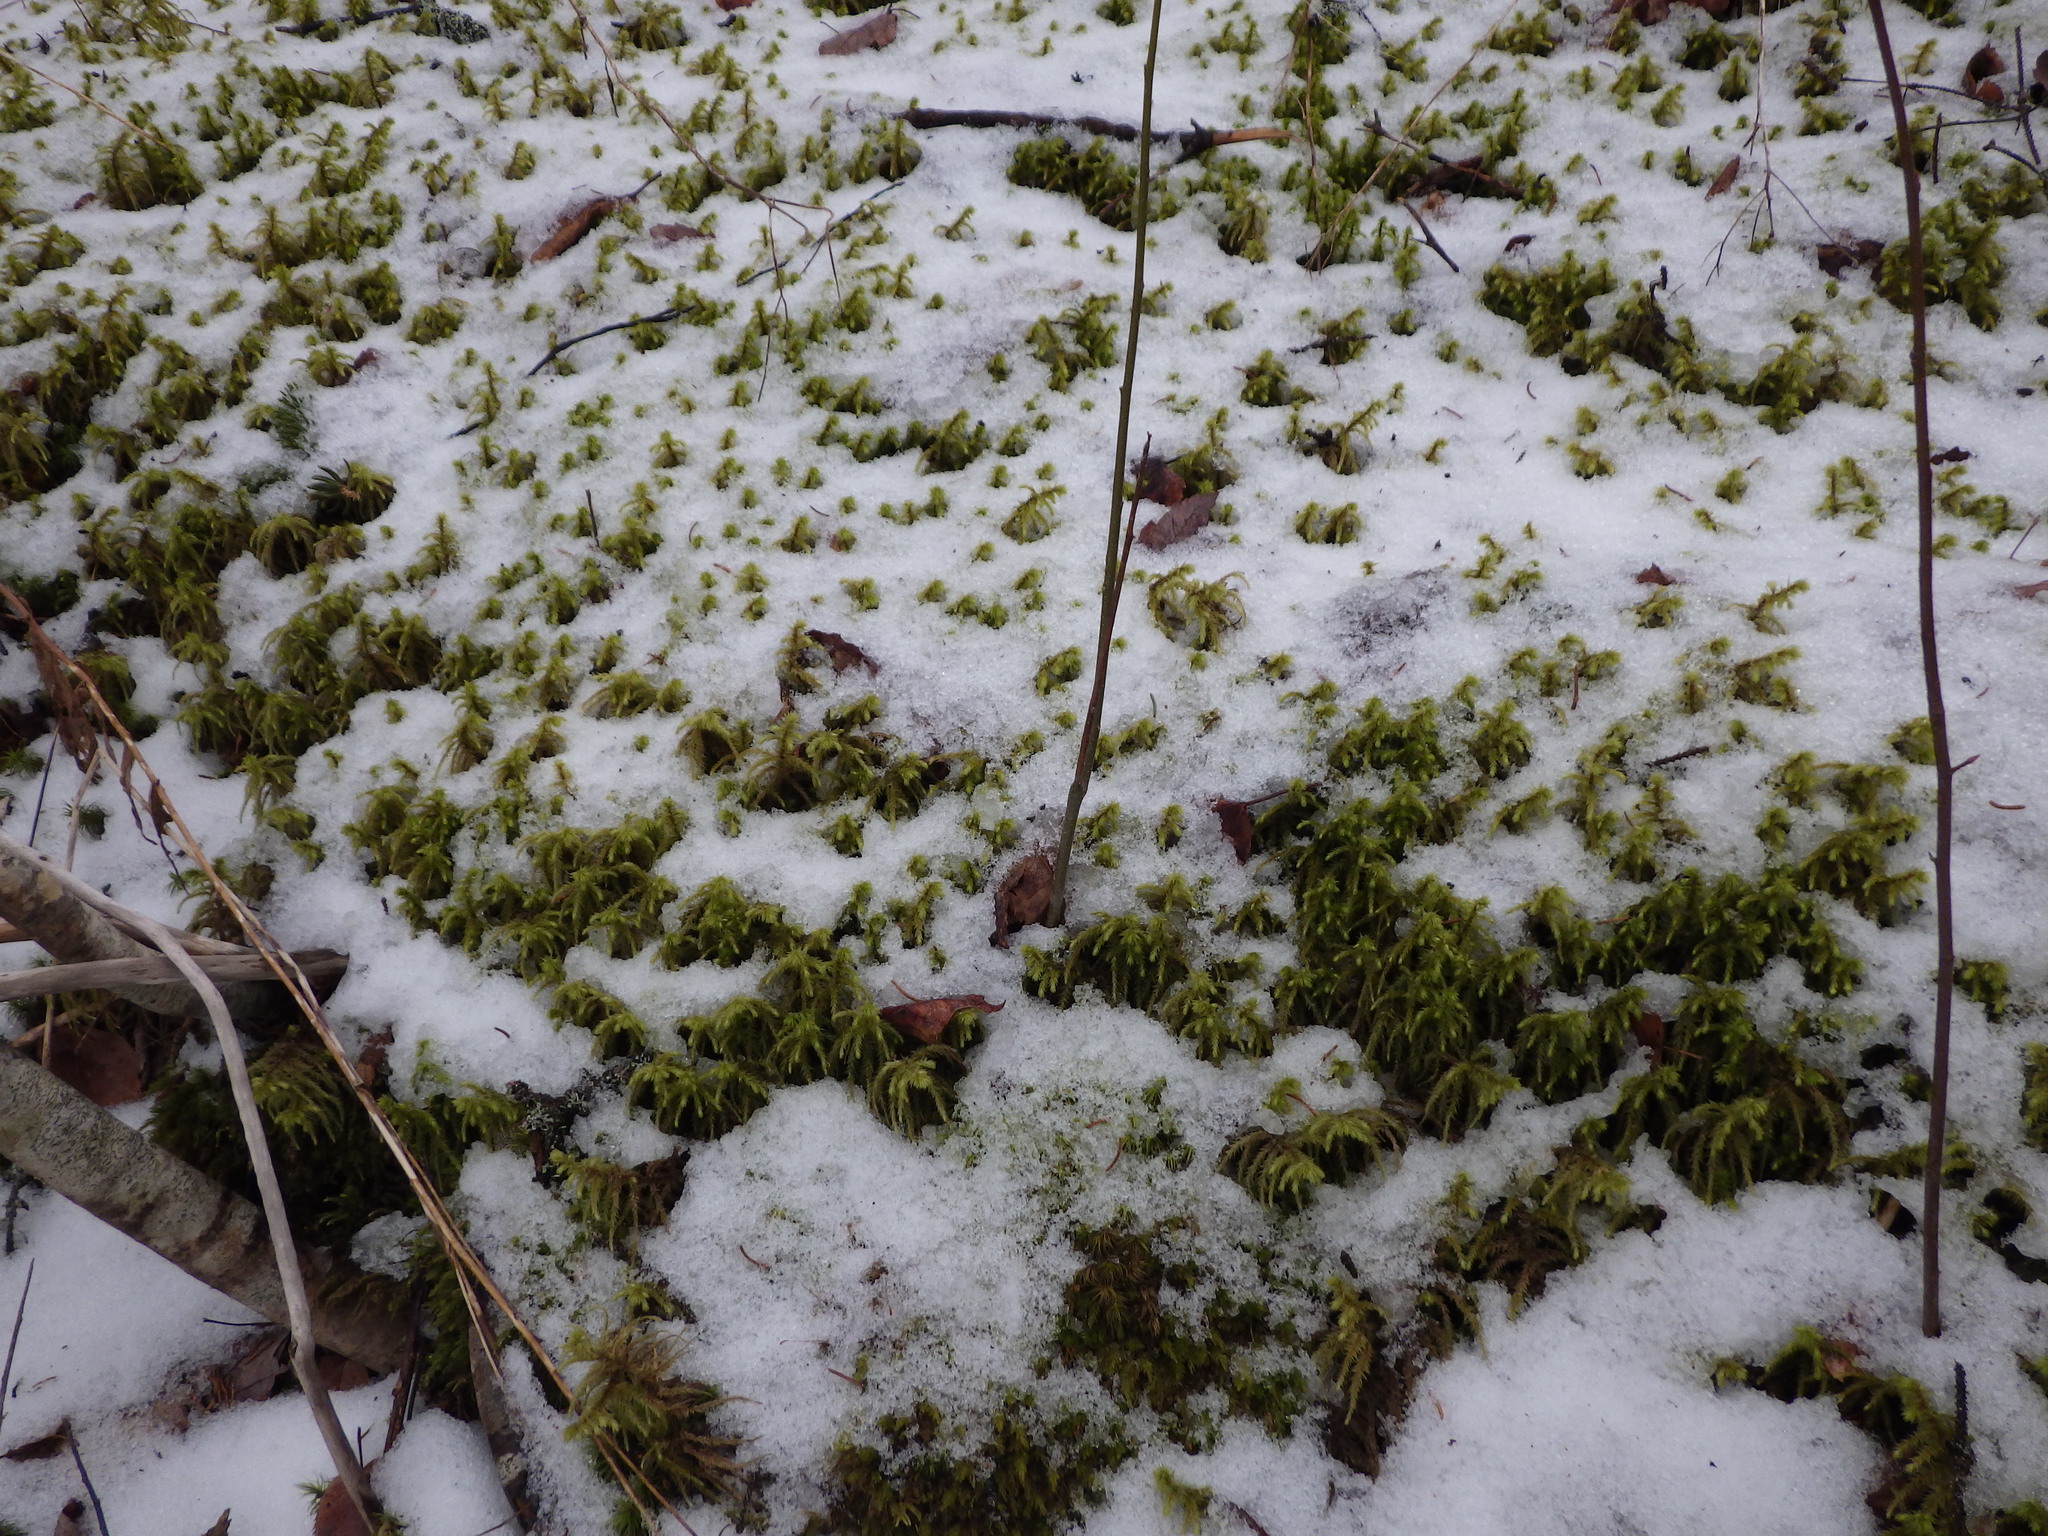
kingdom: Plantae
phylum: Bryophyta
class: Bryopsida
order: Hypnales
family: Hylocomiaceae
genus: Hylocomiadelphus
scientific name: Hylocomiadelphus triquetrus
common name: Rough goose neck moss
